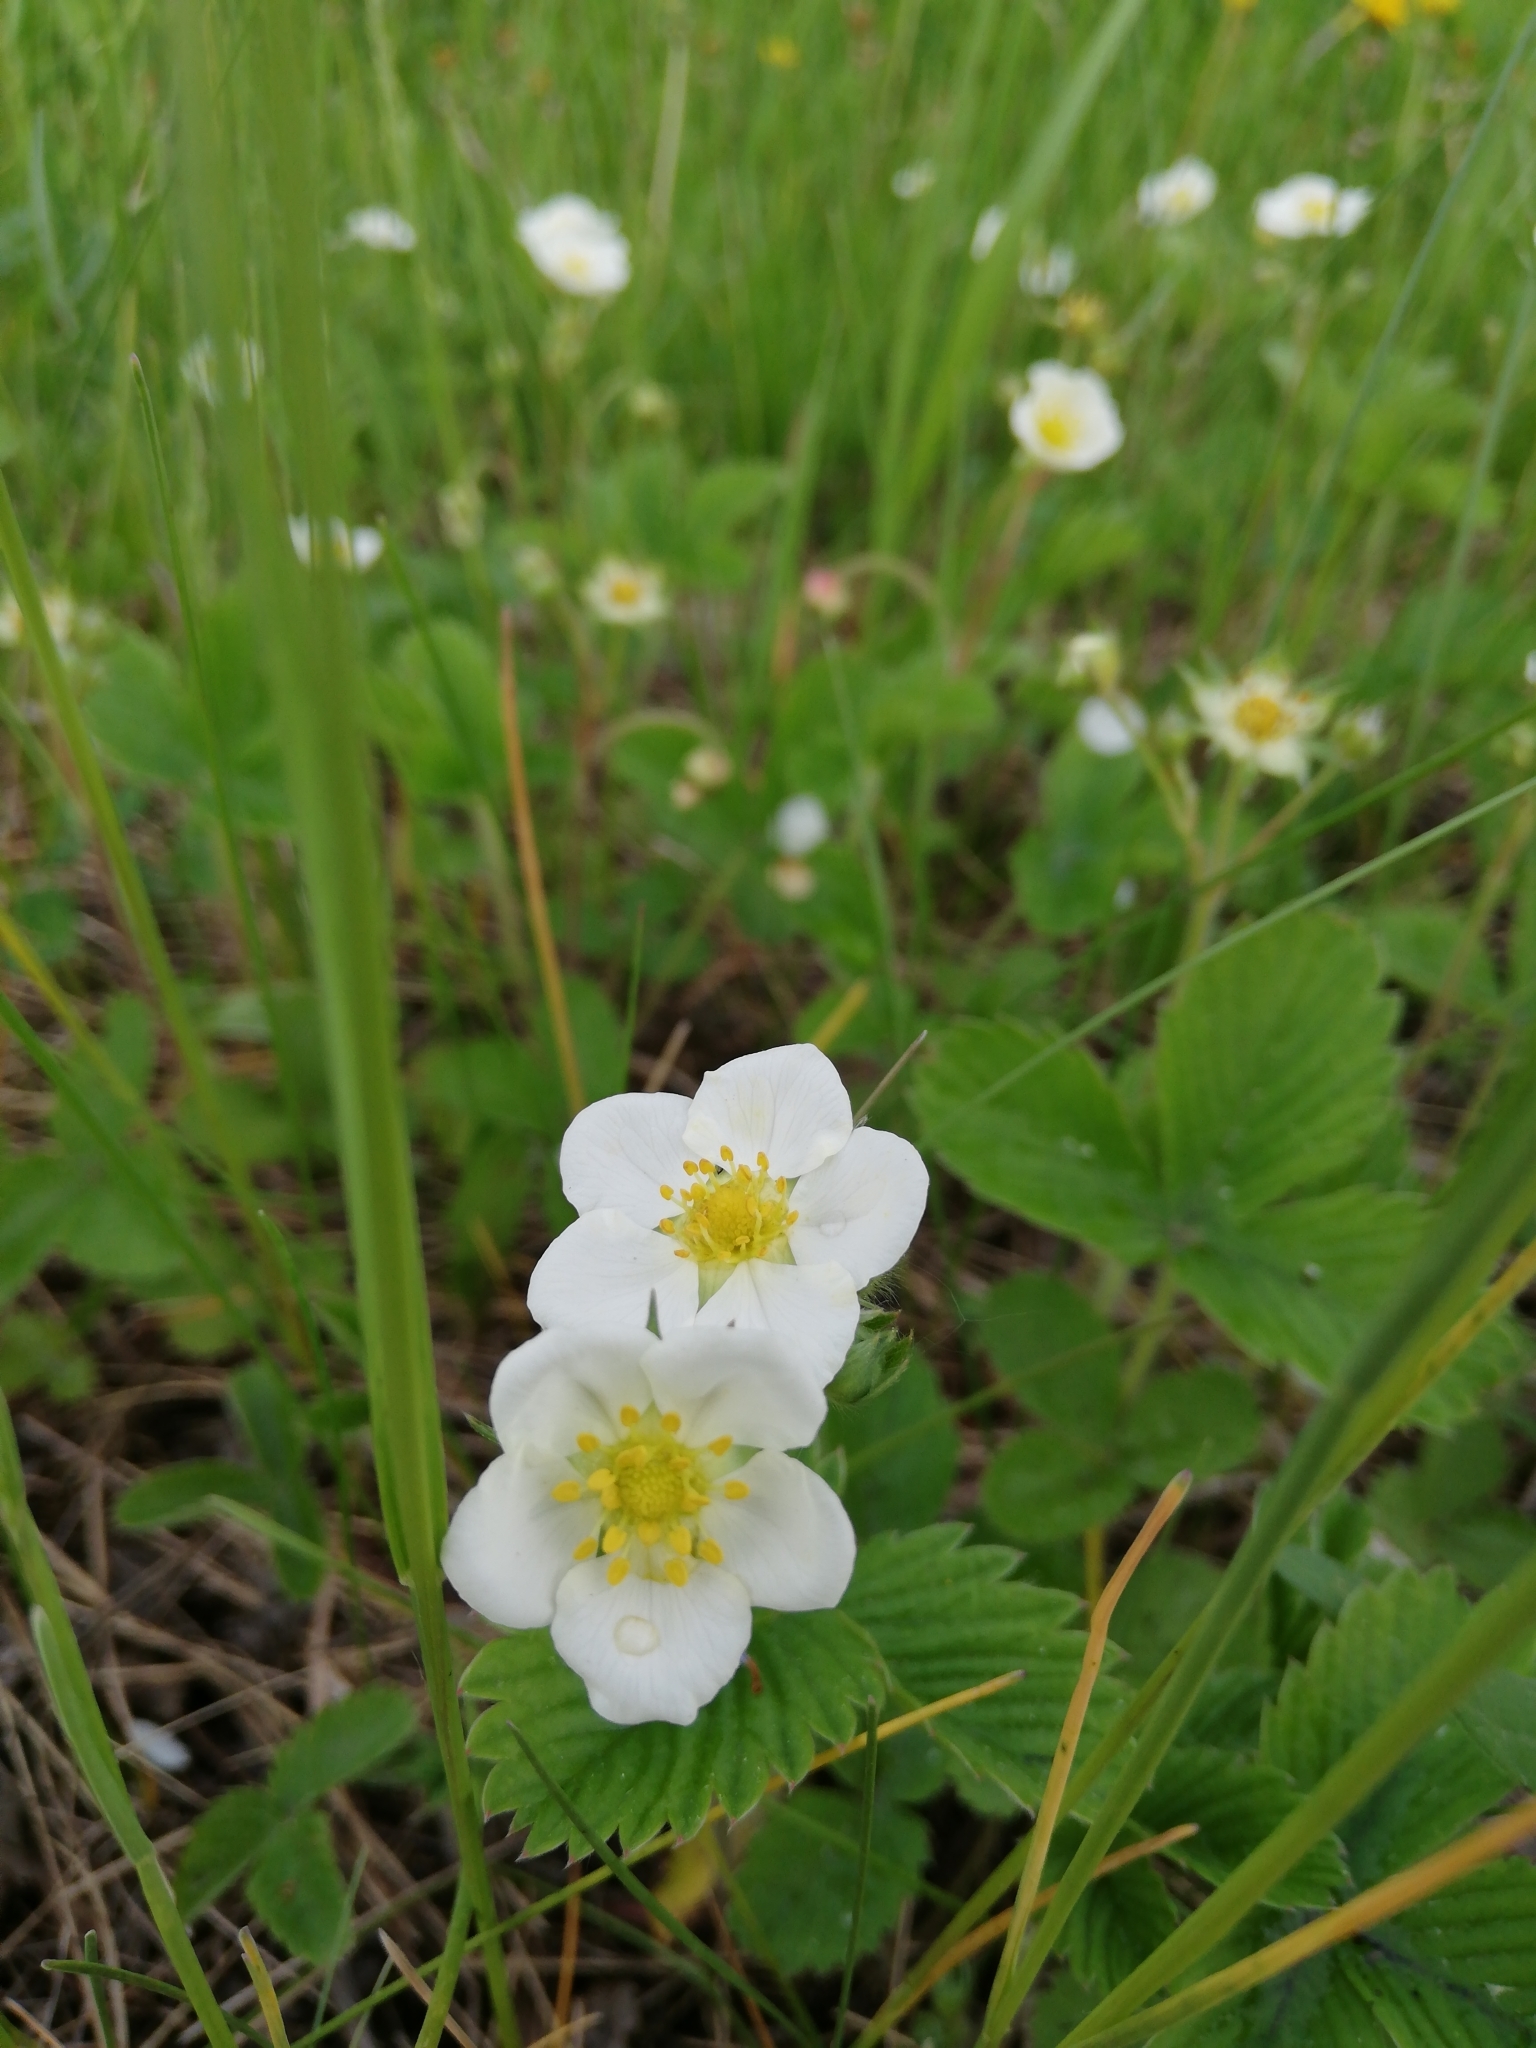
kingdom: Plantae
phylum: Tracheophyta
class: Magnoliopsida
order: Rosales
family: Rosaceae
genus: Fragaria
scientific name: Fragaria viridis
